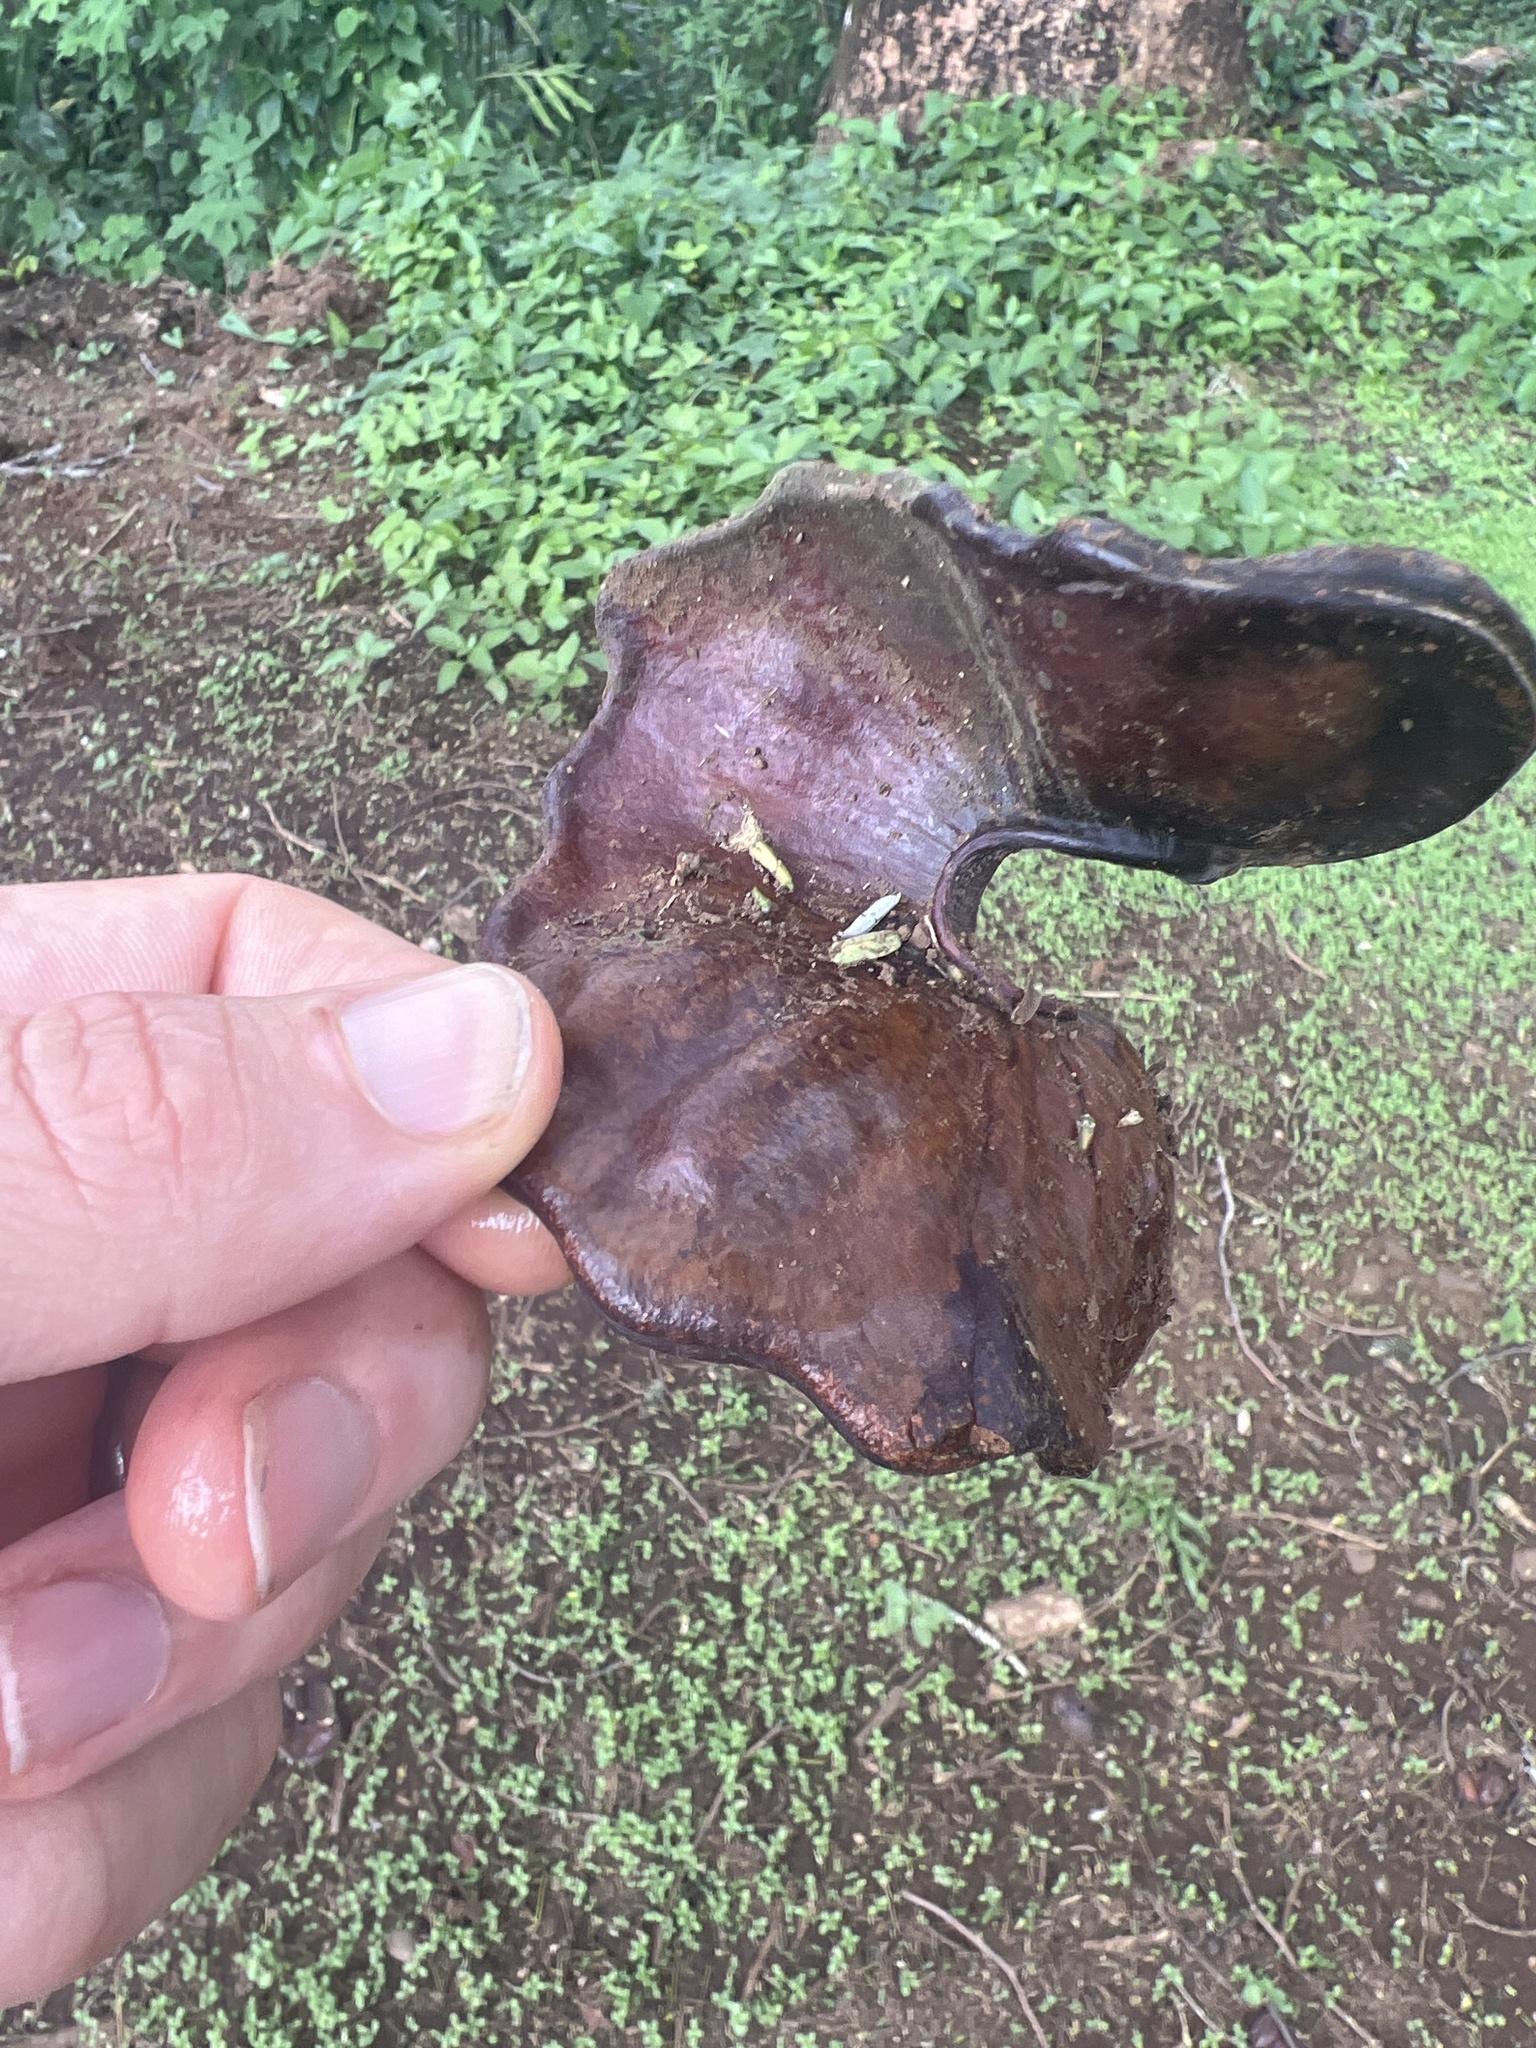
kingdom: Plantae
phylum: Tracheophyta
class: Magnoliopsida
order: Fabales
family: Fabaceae
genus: Enterolobium
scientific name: Enterolobium cyclocarpum
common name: Ear tree
